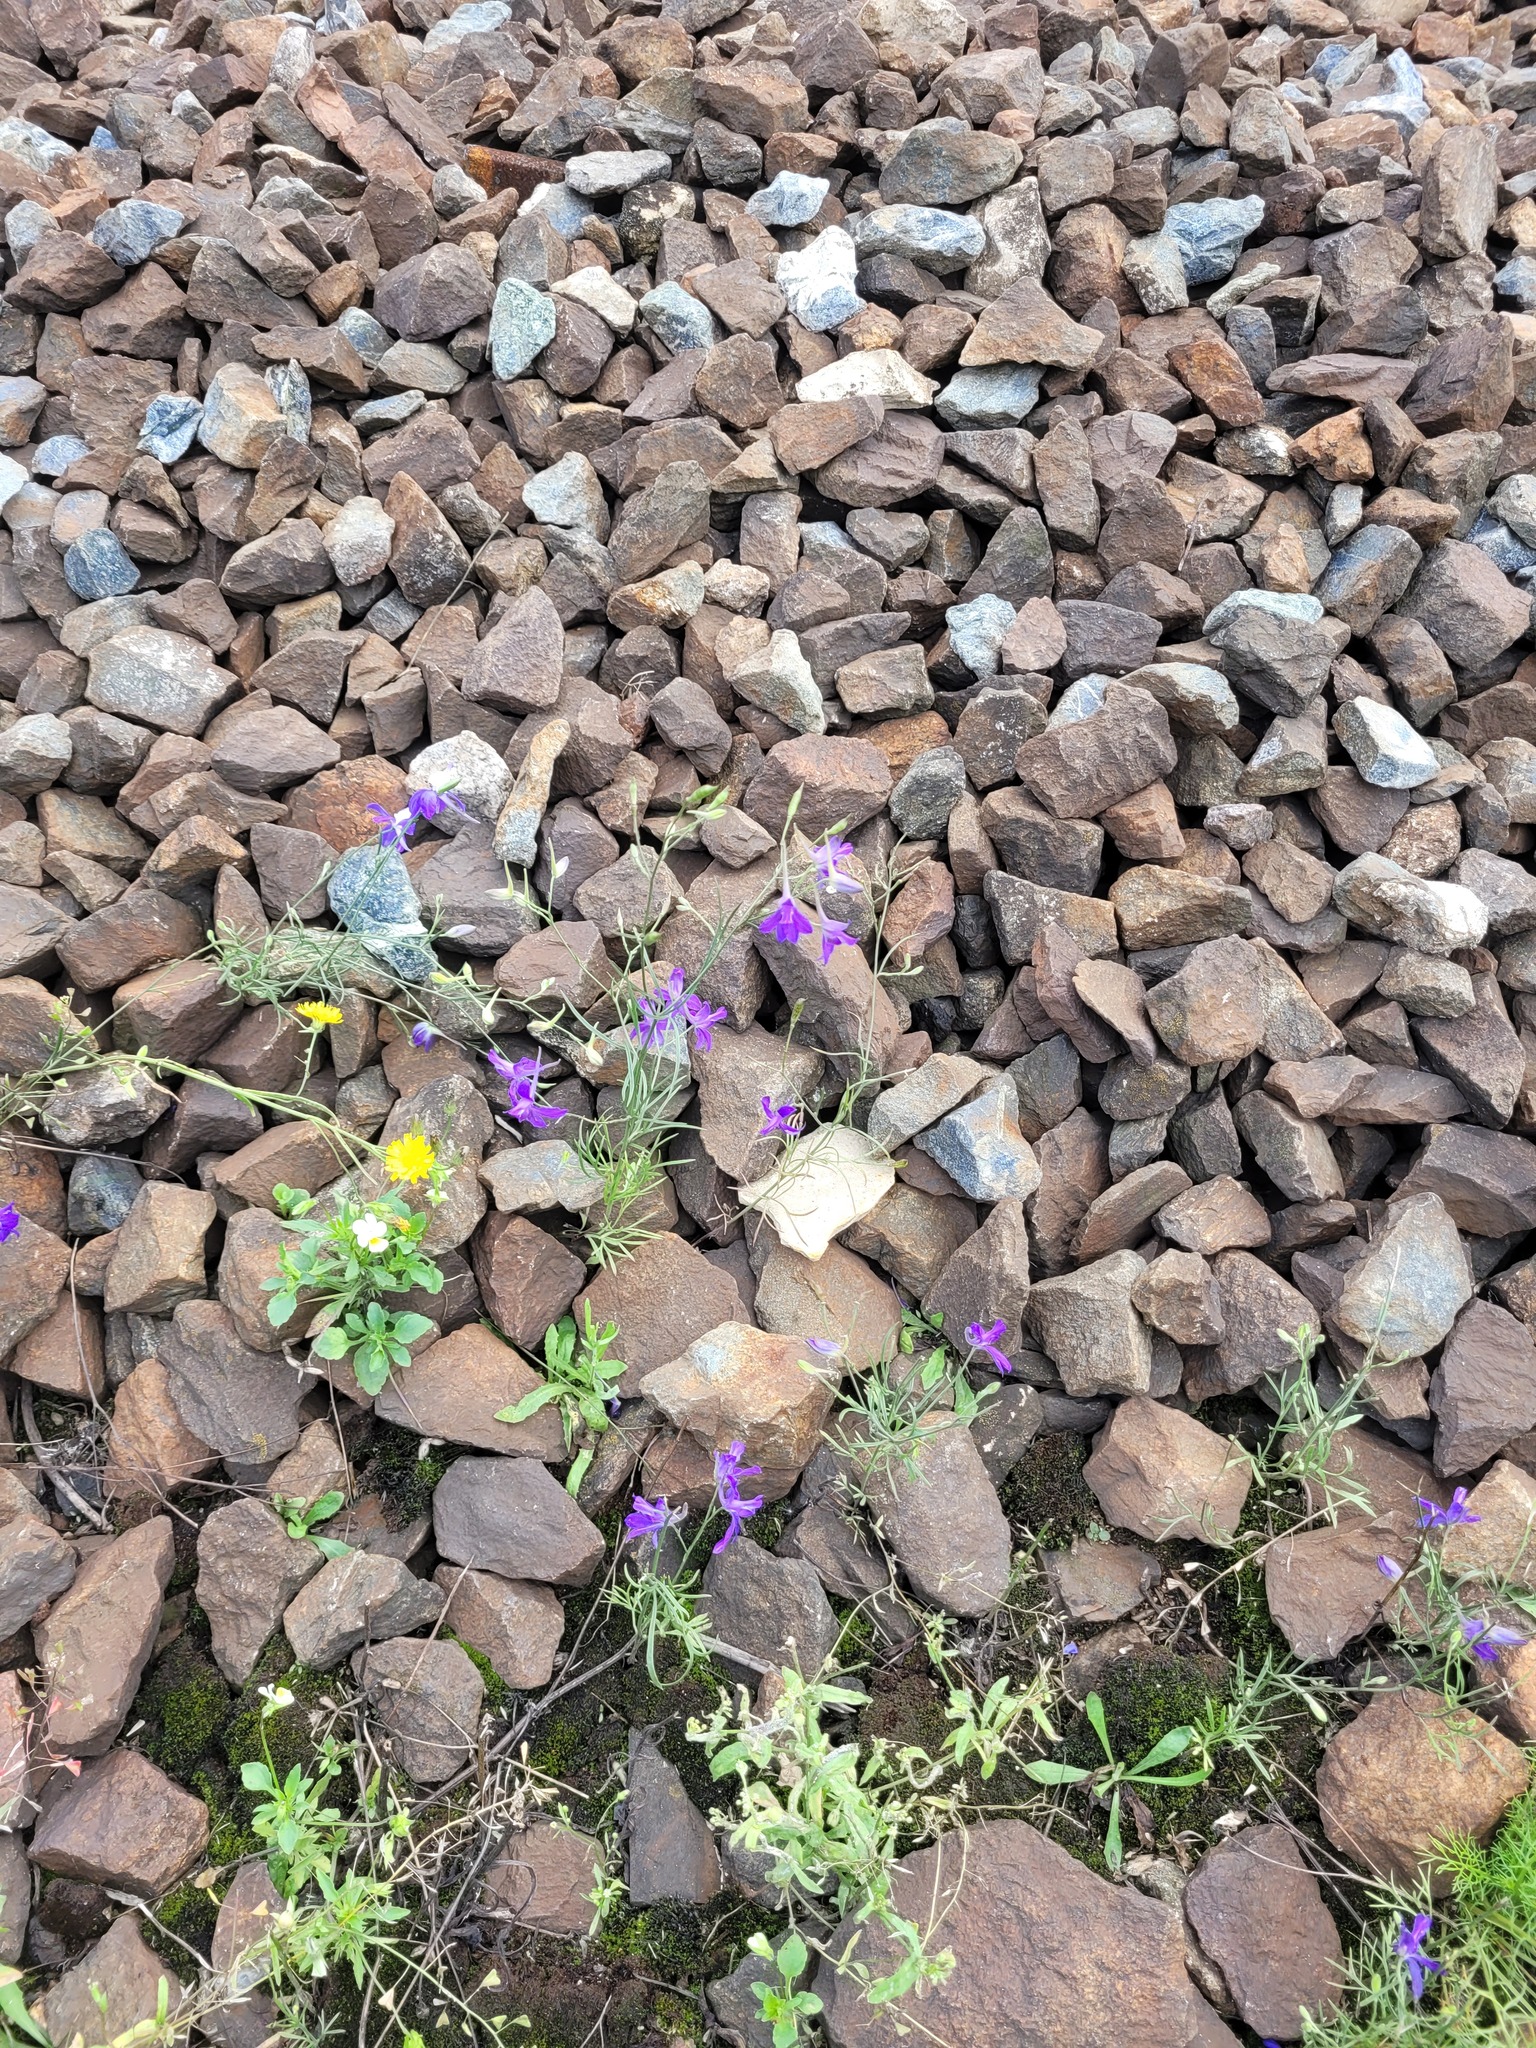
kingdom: Plantae
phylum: Tracheophyta
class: Magnoliopsida
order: Ranunculales
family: Ranunculaceae
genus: Delphinium
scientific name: Delphinium consolida
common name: Branching larkspur
